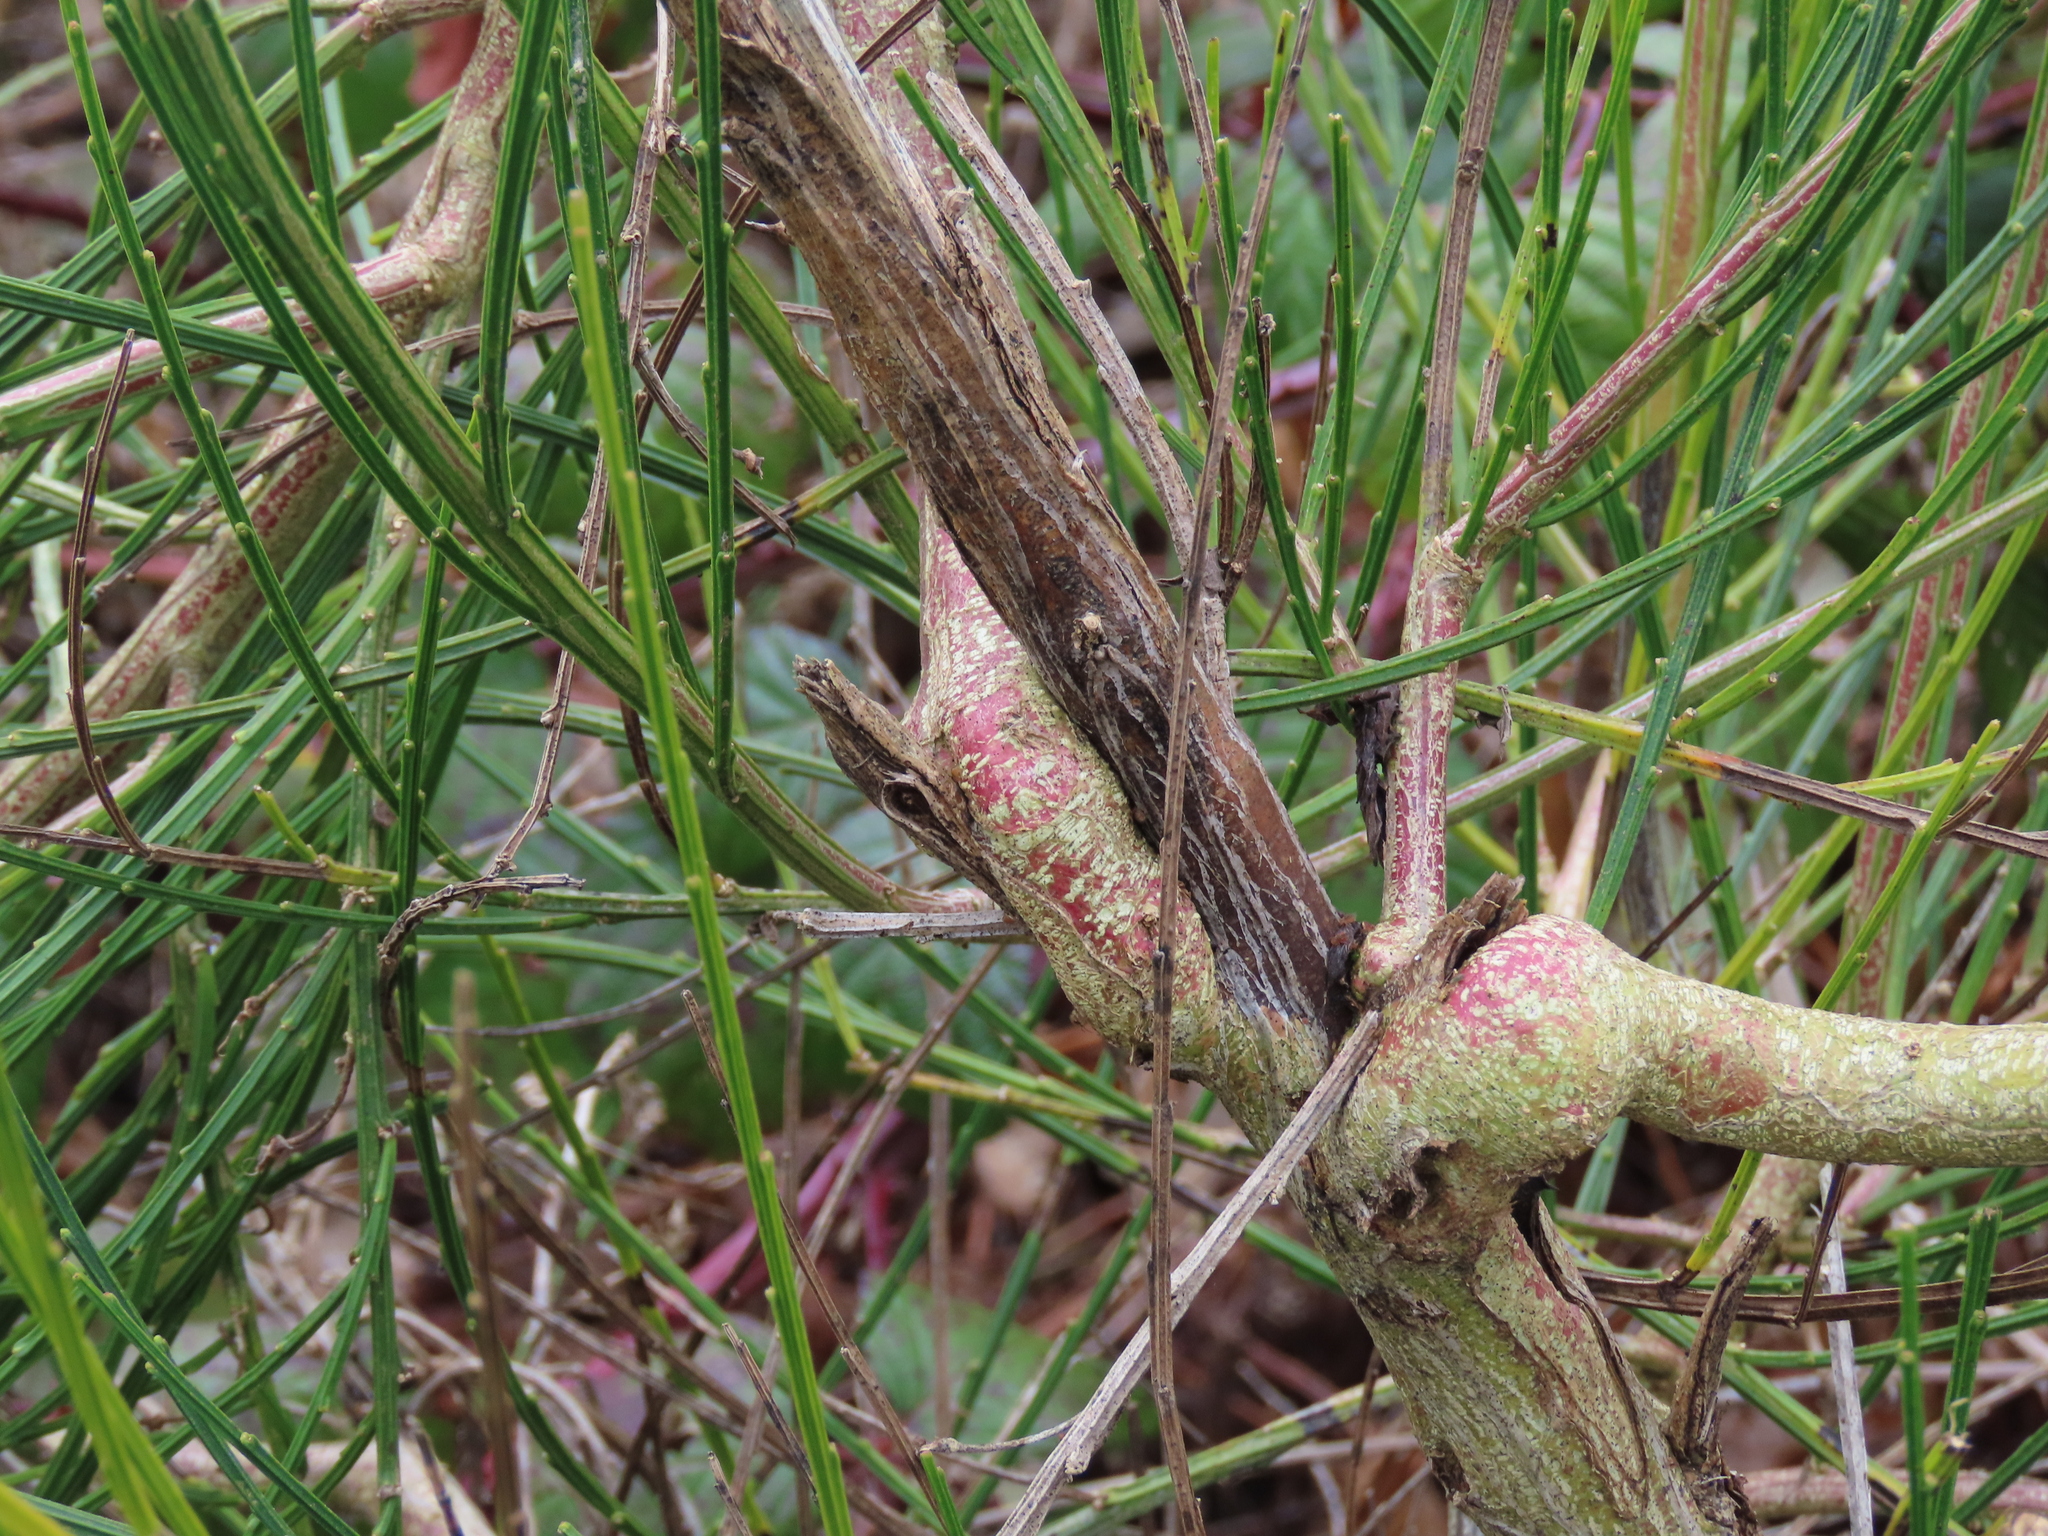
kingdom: Plantae
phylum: Tracheophyta
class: Magnoliopsida
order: Fabales
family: Fabaceae
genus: Cytisus
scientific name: Cytisus scoparius
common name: Scotch broom
